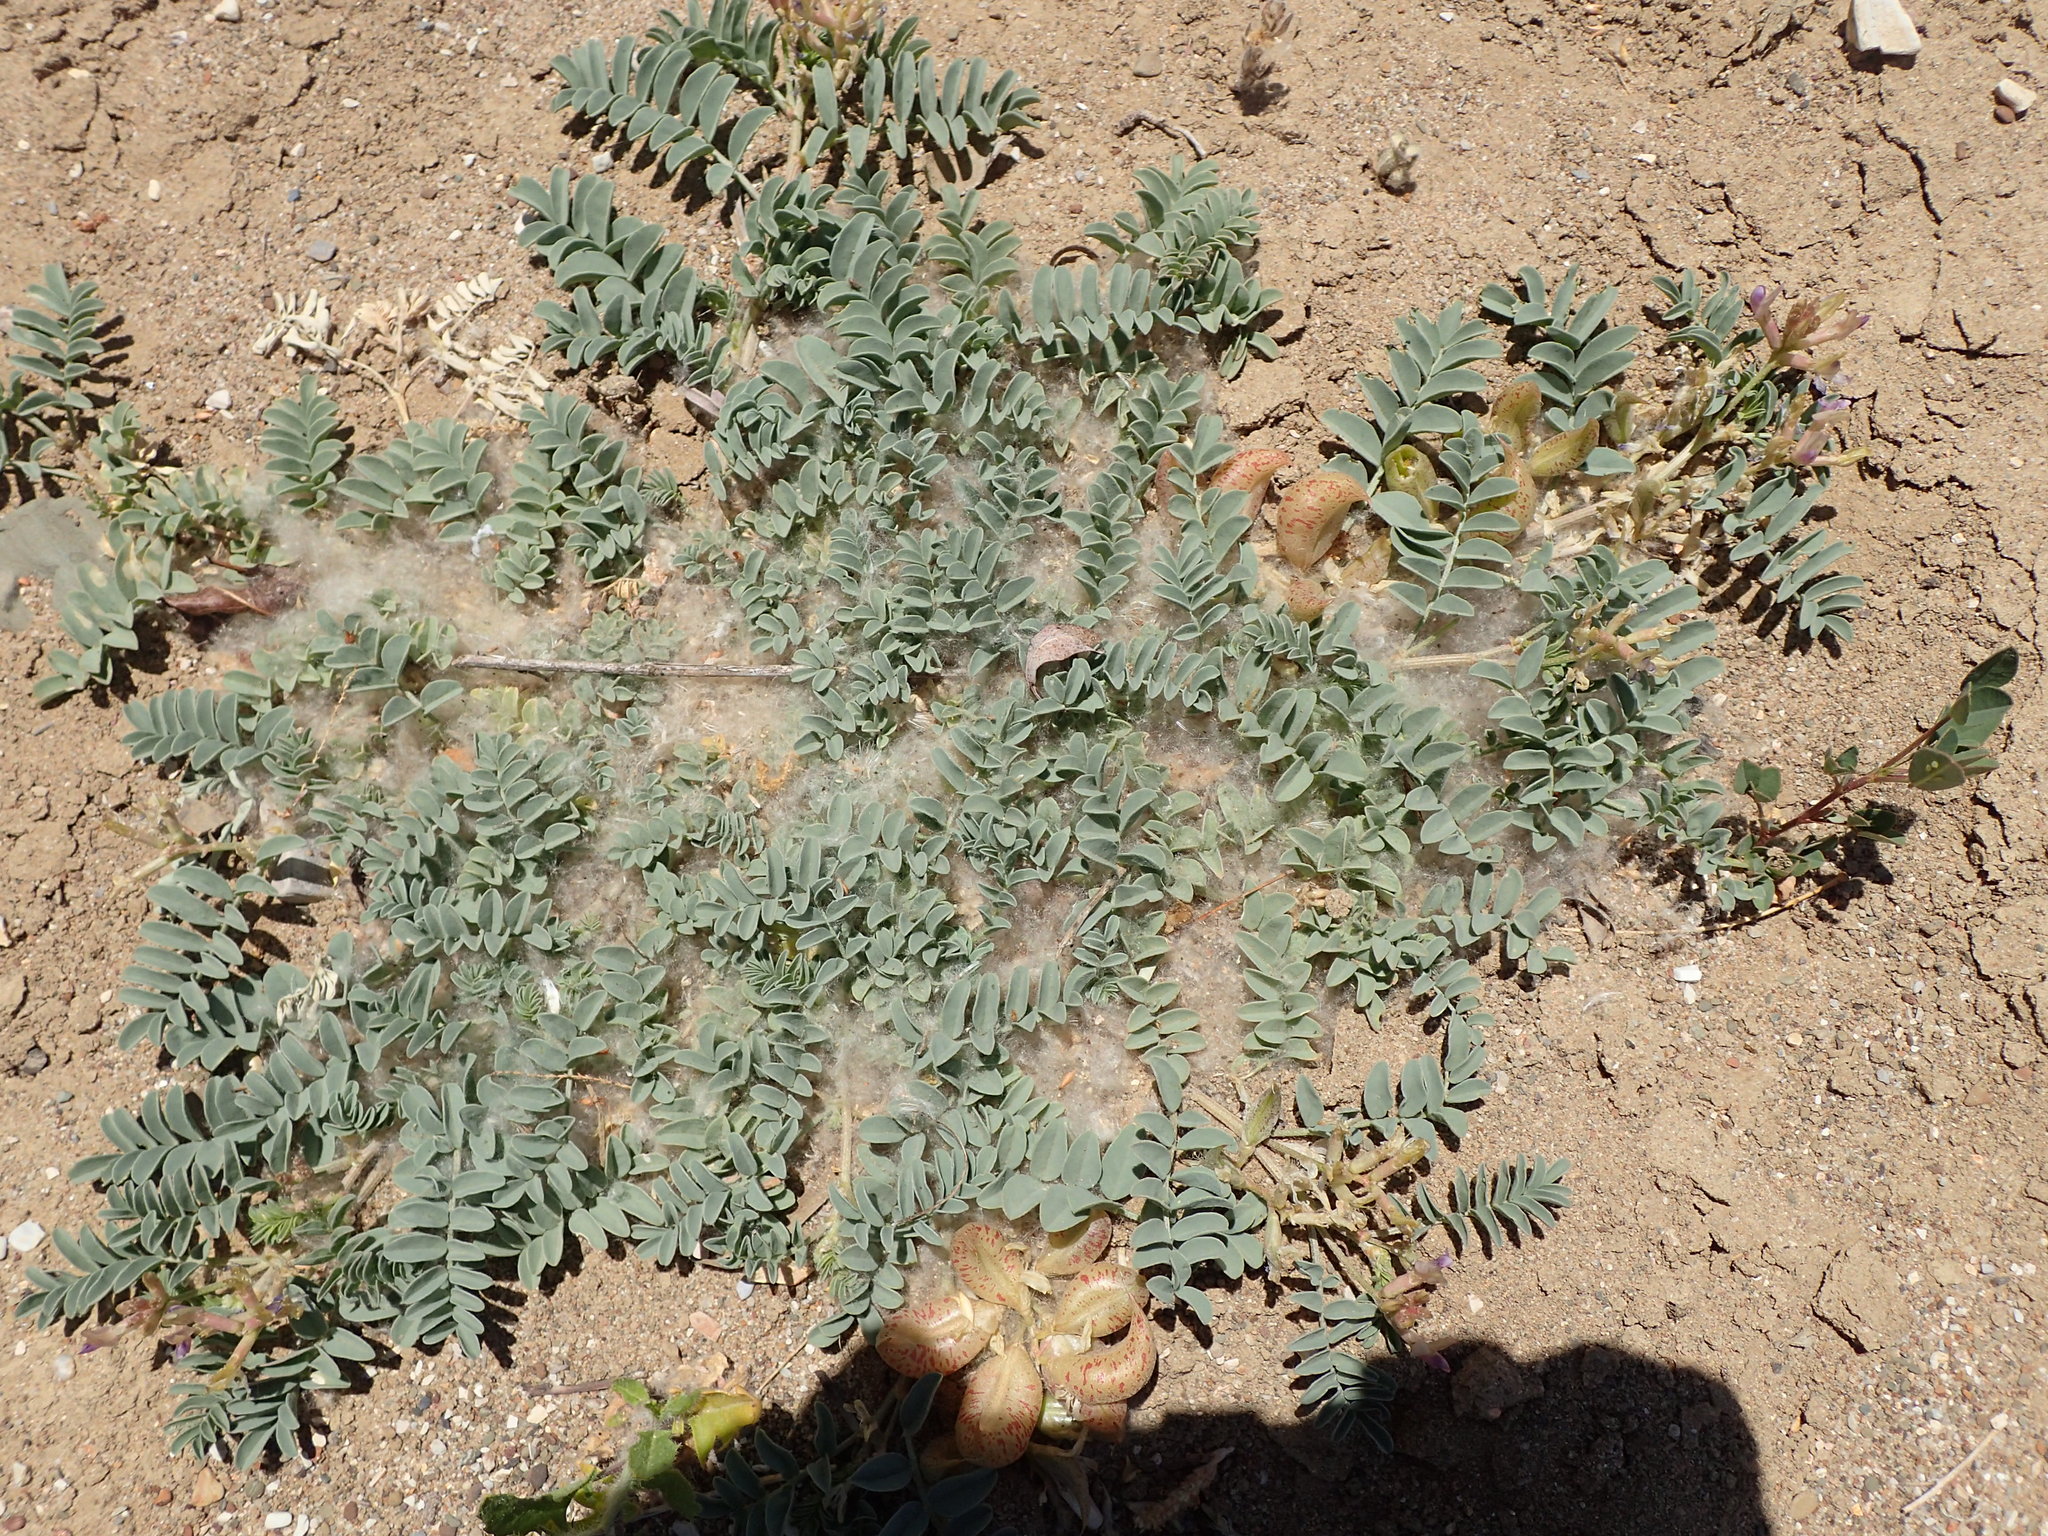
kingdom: Plantae
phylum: Tracheophyta
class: Magnoliopsida
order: Fabales
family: Fabaceae
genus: Astragalus
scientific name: Astragalus lentiginosus
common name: Freckled milkvetch
